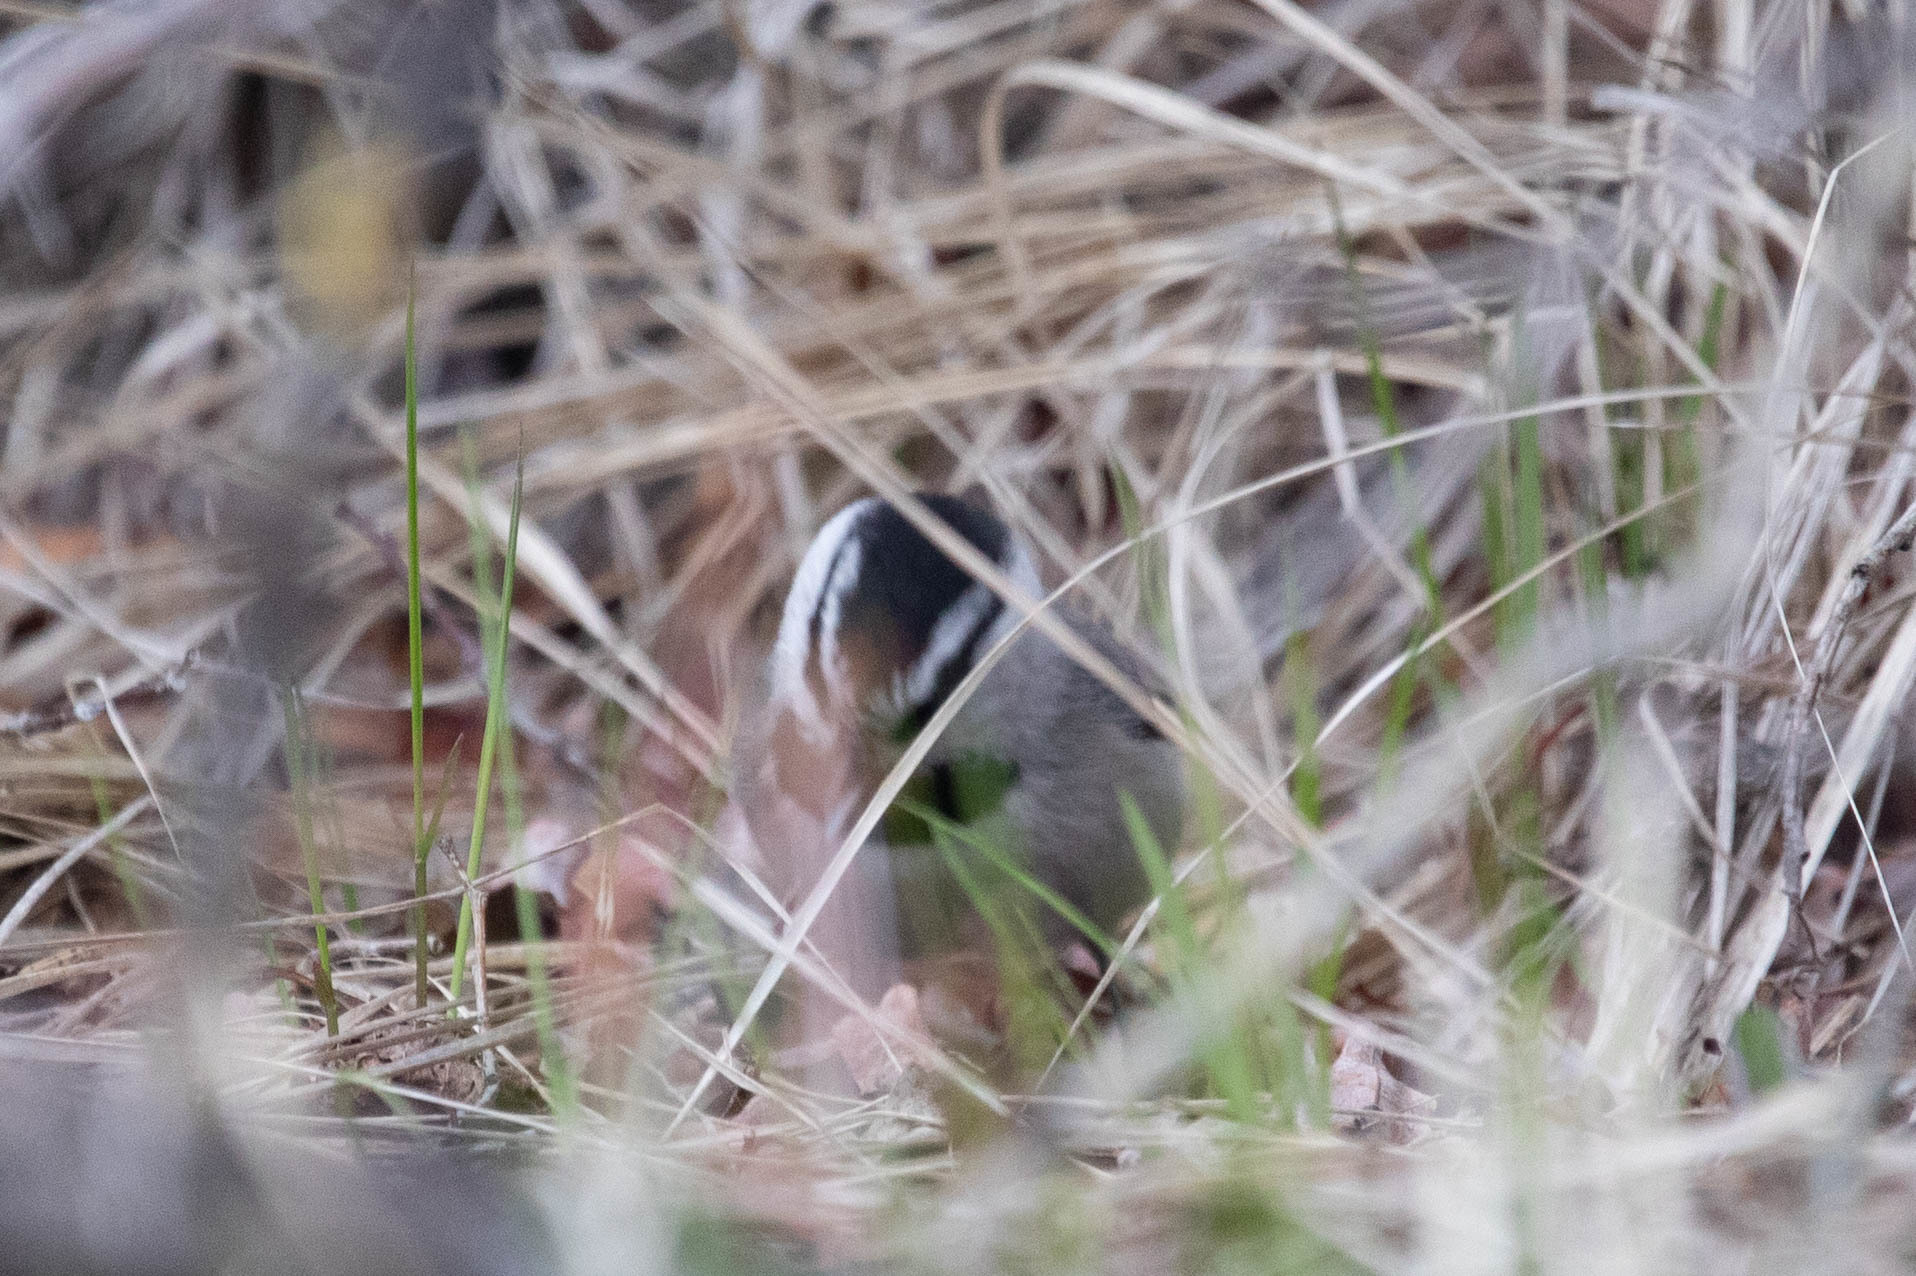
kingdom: Animalia
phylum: Chordata
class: Aves
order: Passeriformes
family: Paridae
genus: Poecile
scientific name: Poecile gambeli
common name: Mountain chickadee
